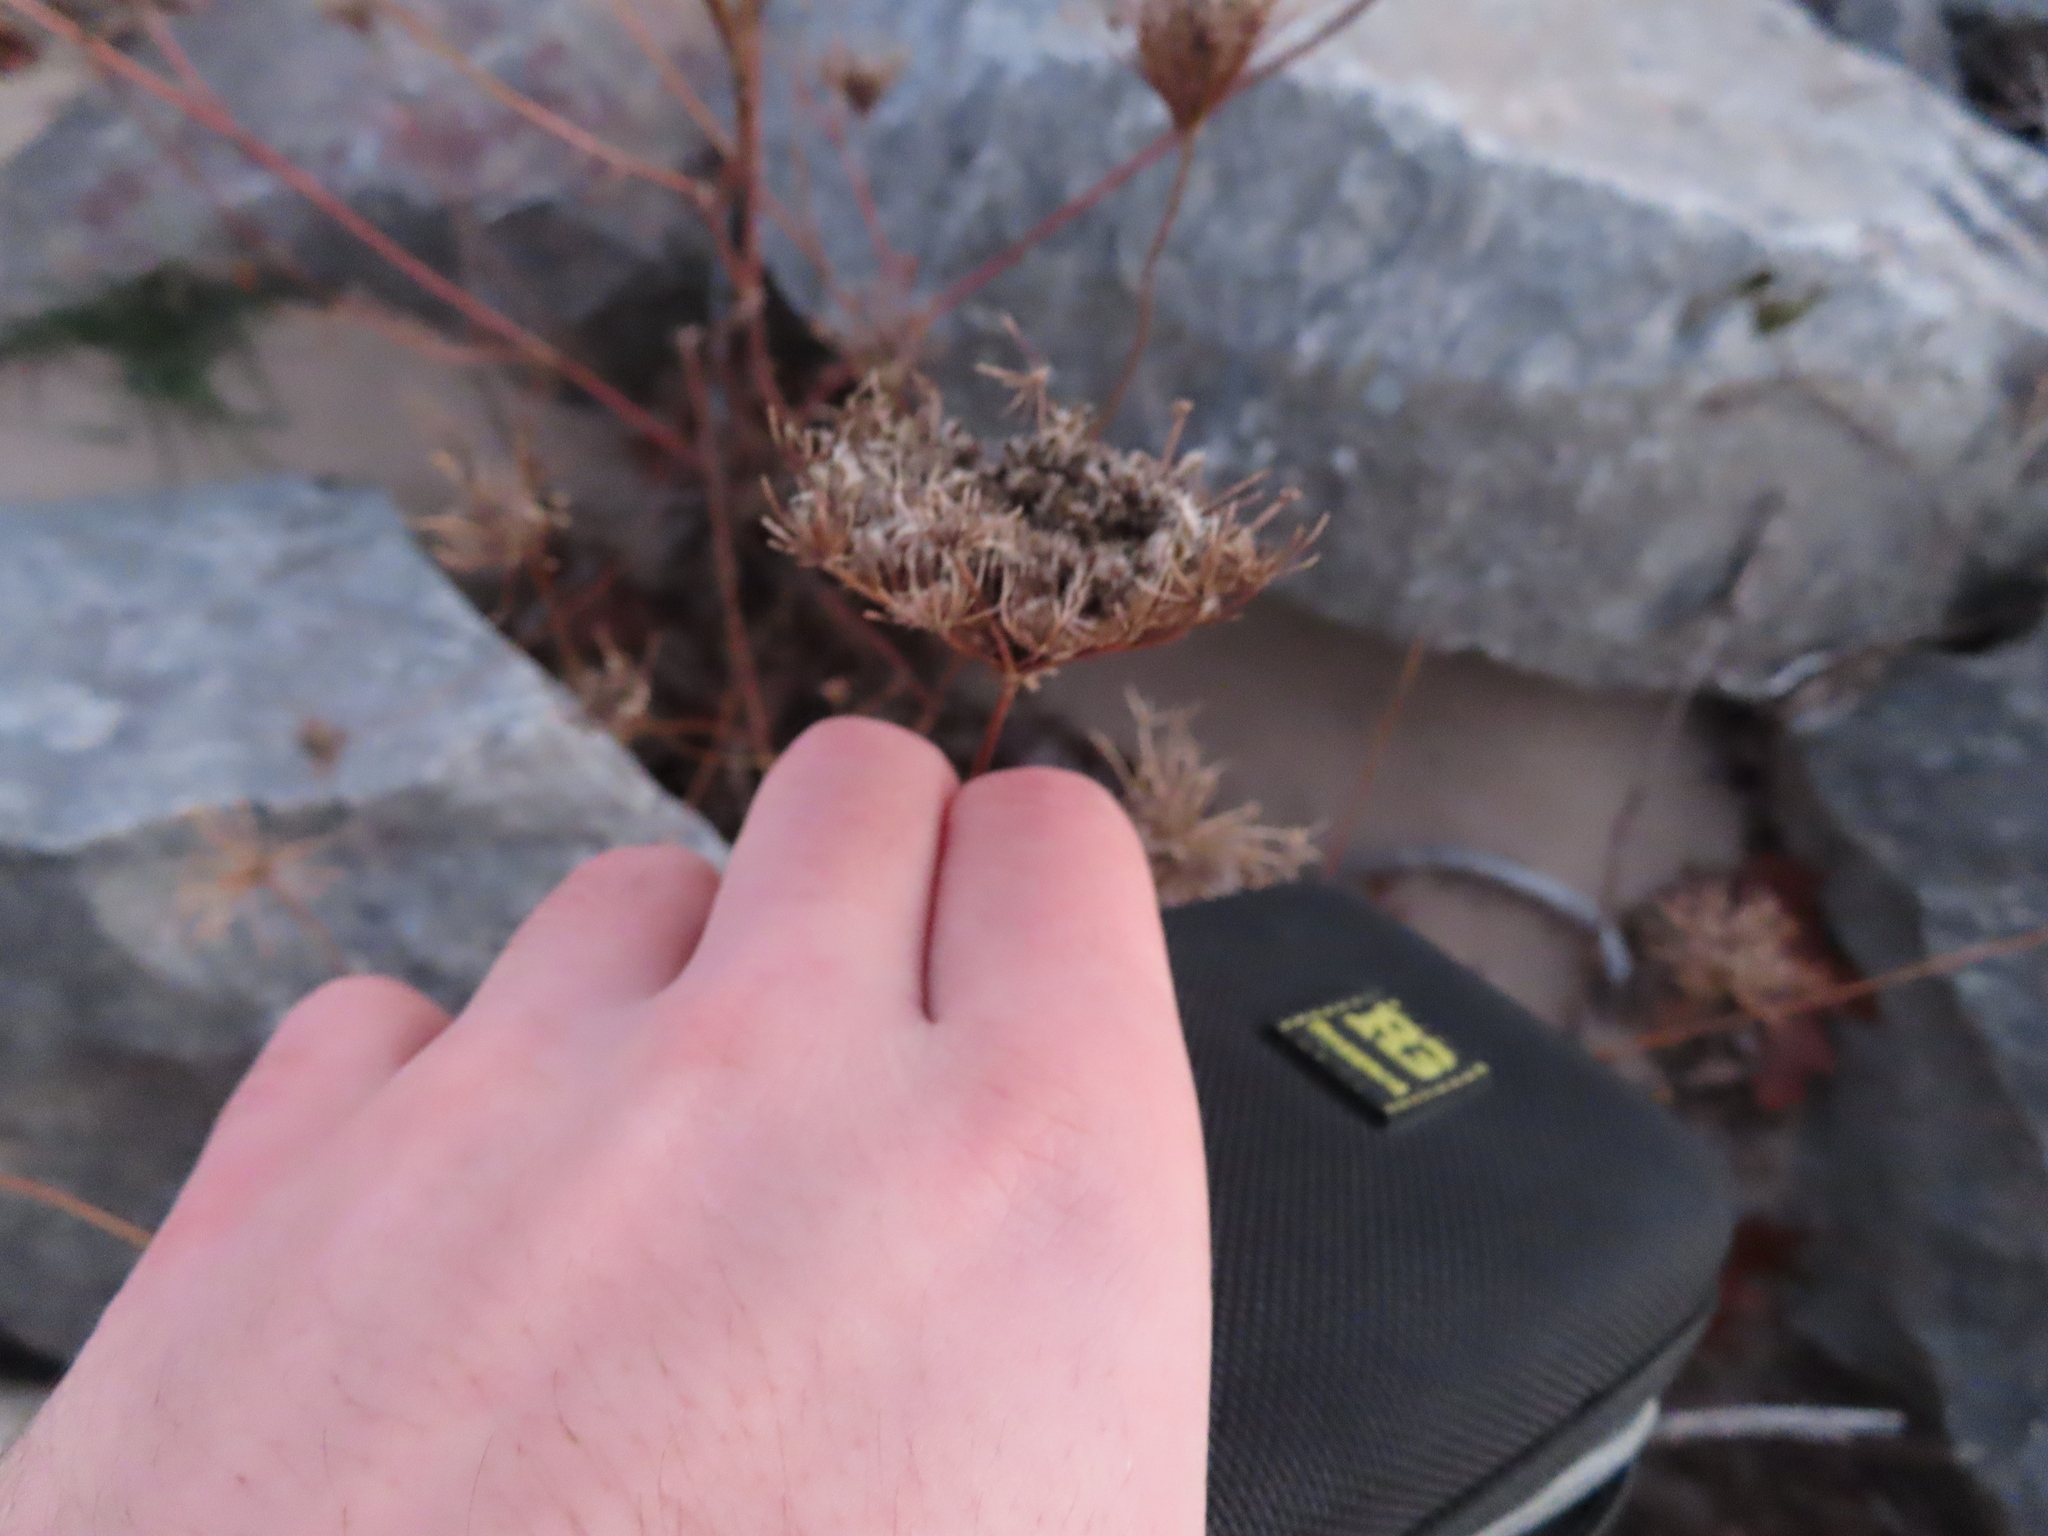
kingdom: Plantae
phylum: Tracheophyta
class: Magnoliopsida
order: Apiales
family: Apiaceae
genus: Daucus
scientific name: Daucus carota
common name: Wild carrot
